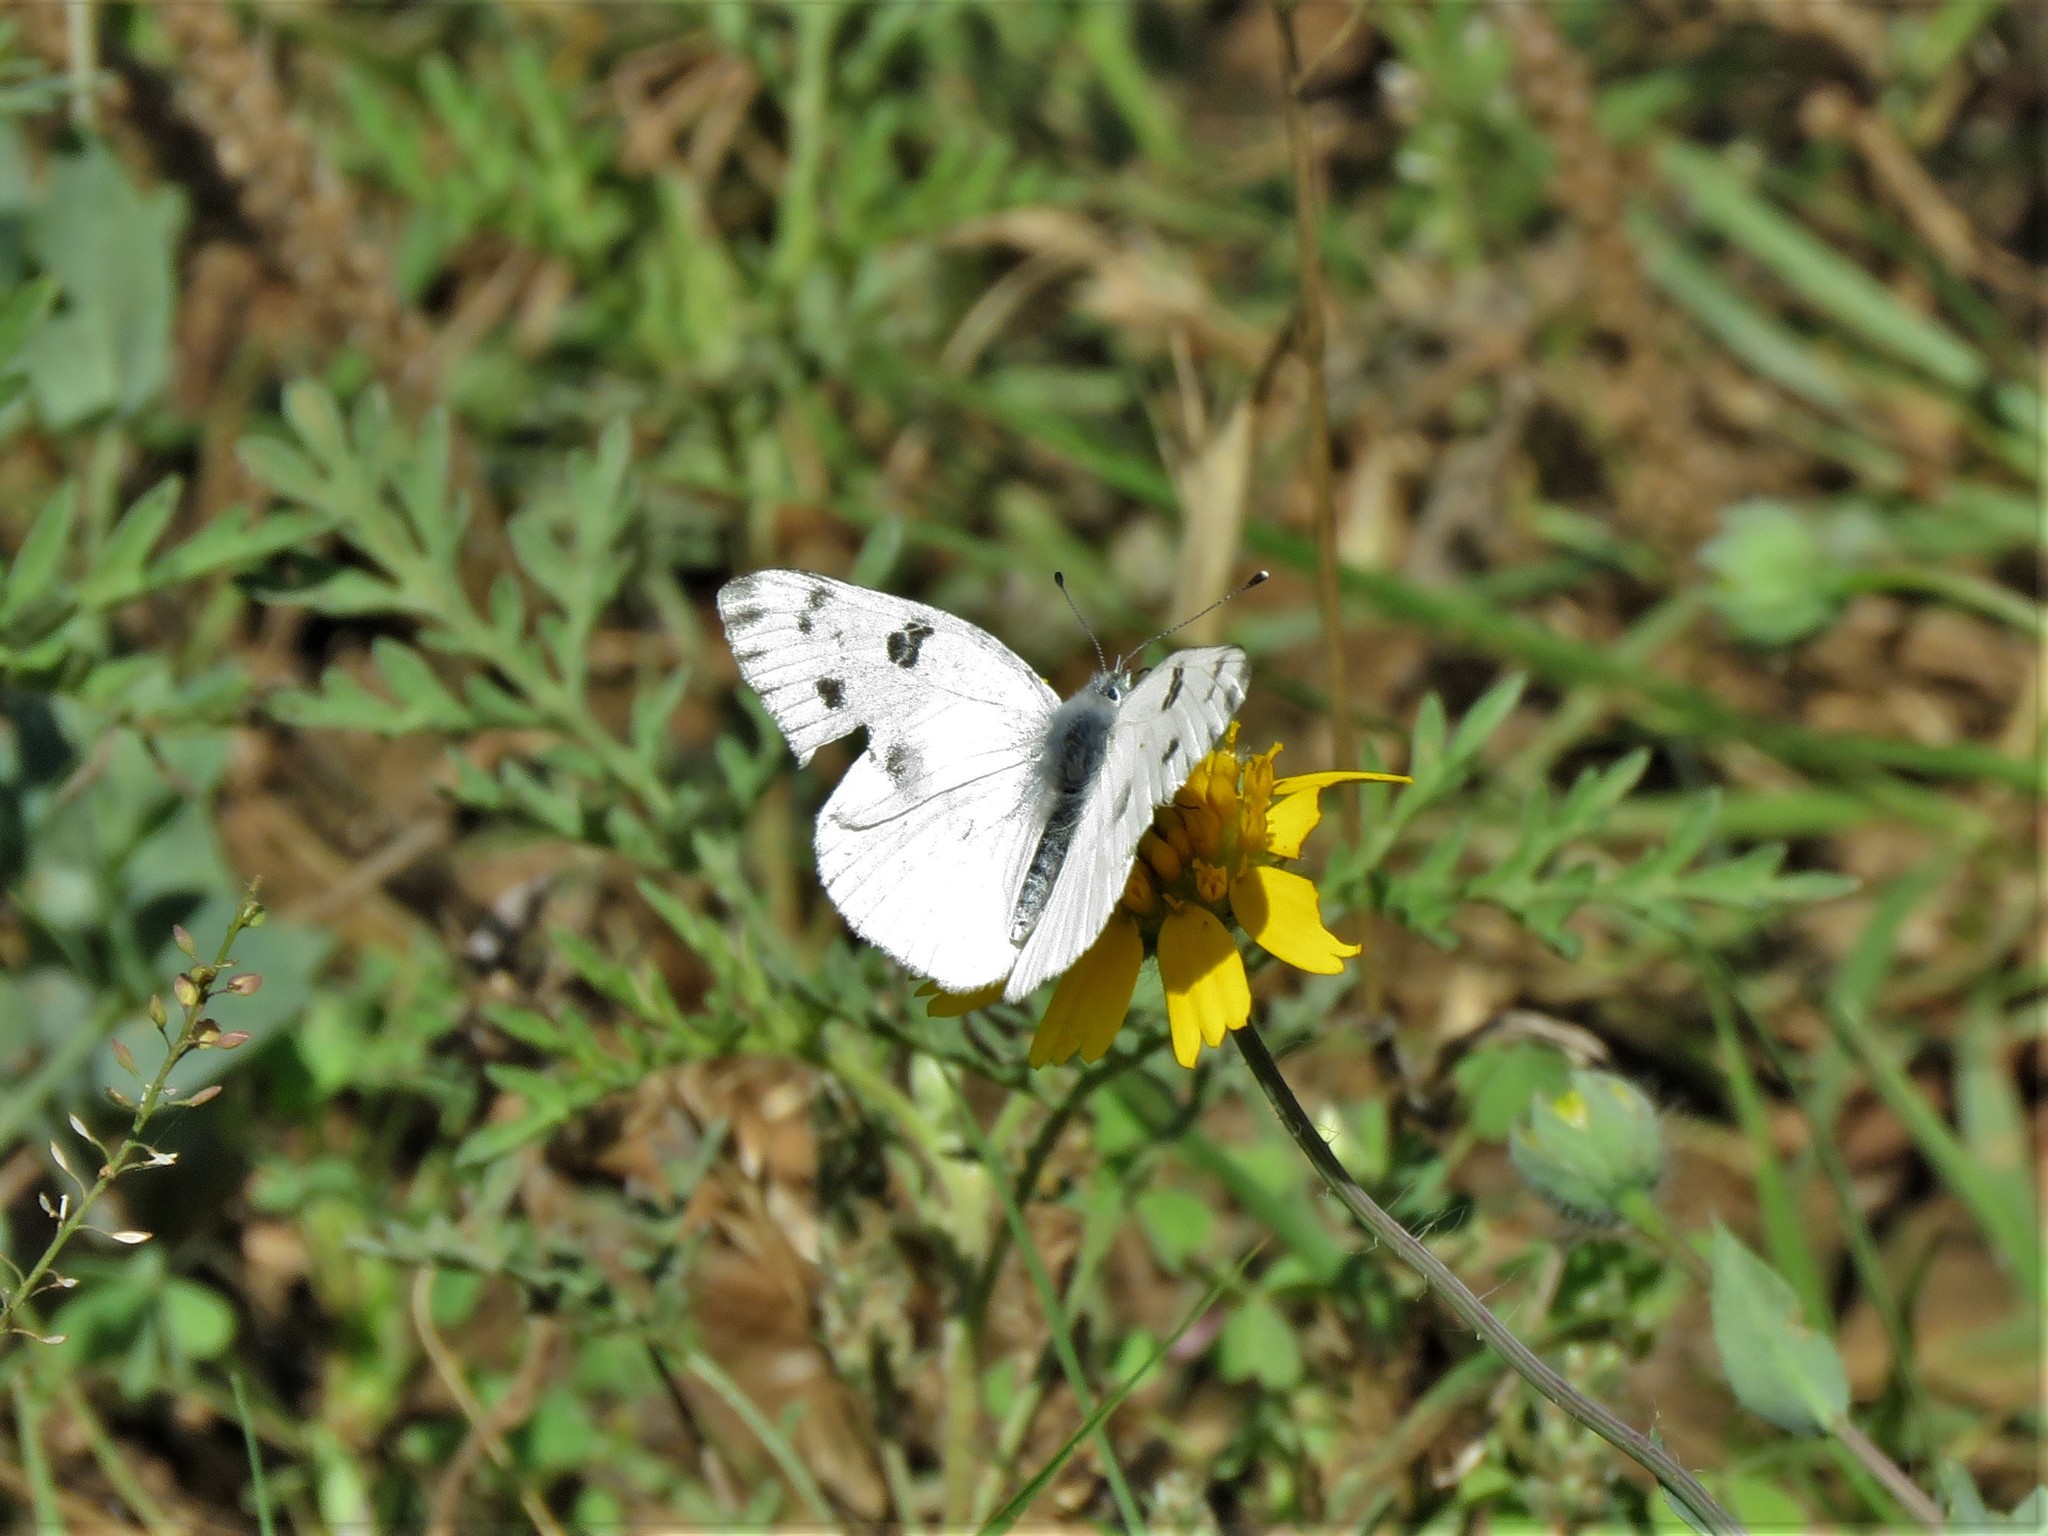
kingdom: Animalia
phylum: Arthropoda
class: Insecta
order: Lepidoptera
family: Pieridae
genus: Pontia
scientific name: Pontia protodice
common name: Checkered white
